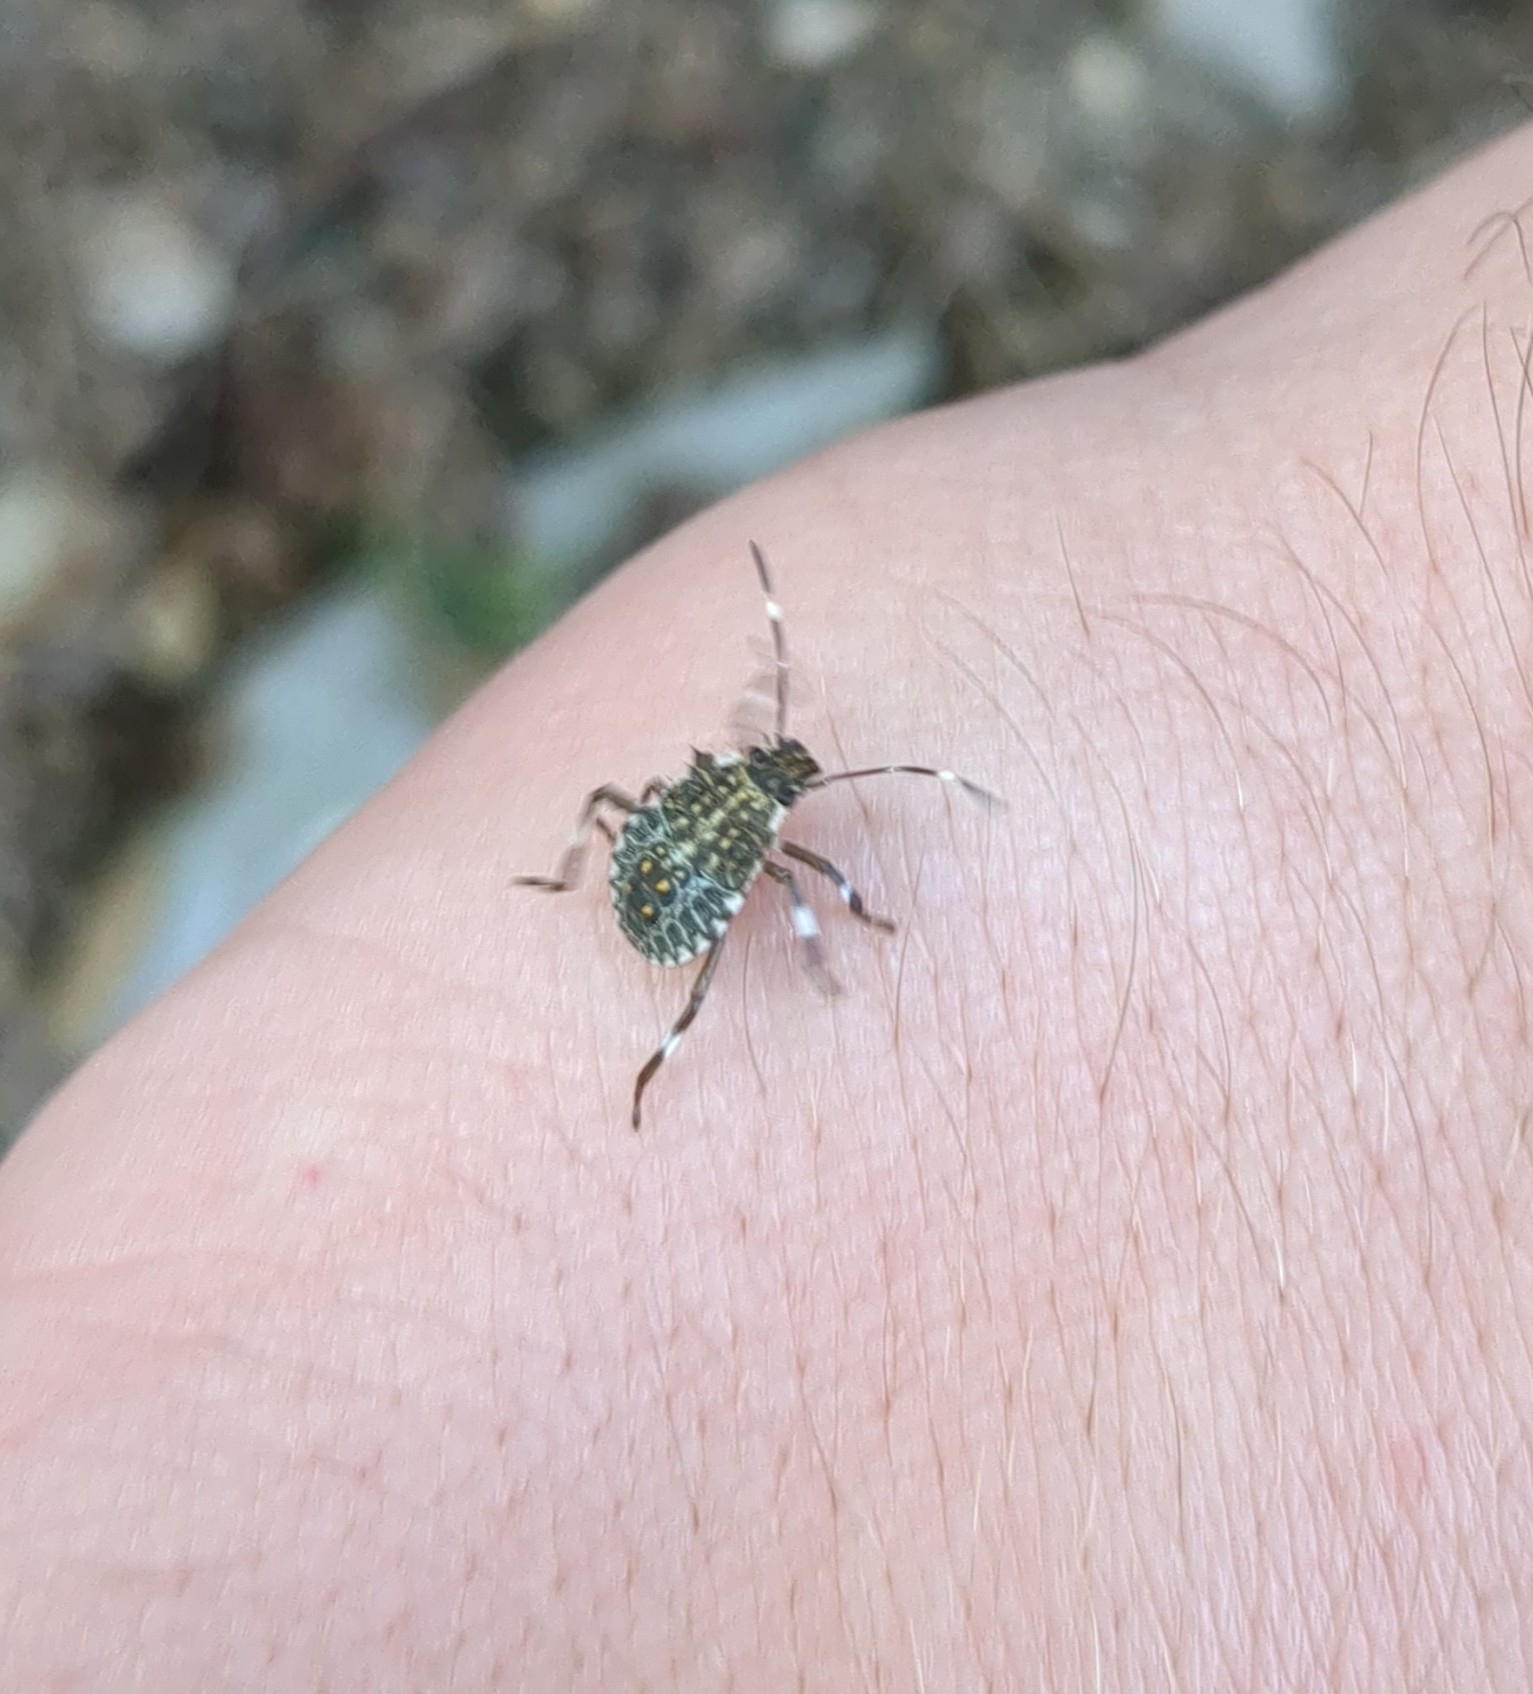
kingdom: Animalia
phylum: Arthropoda
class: Insecta
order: Hemiptera
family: Pentatomidae
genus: Halyomorpha
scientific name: Halyomorpha halys
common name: Brown marmorated stink bug
